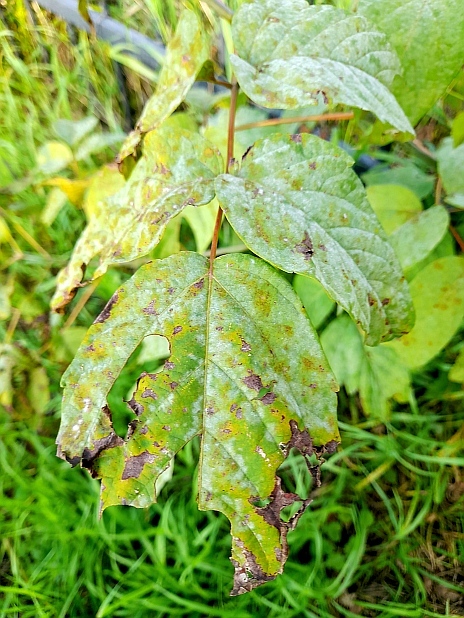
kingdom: Plantae
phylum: Tracheophyta
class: Magnoliopsida
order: Sapindales
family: Sapindaceae
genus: Acer
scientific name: Acer negundo
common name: Ashleaf maple
